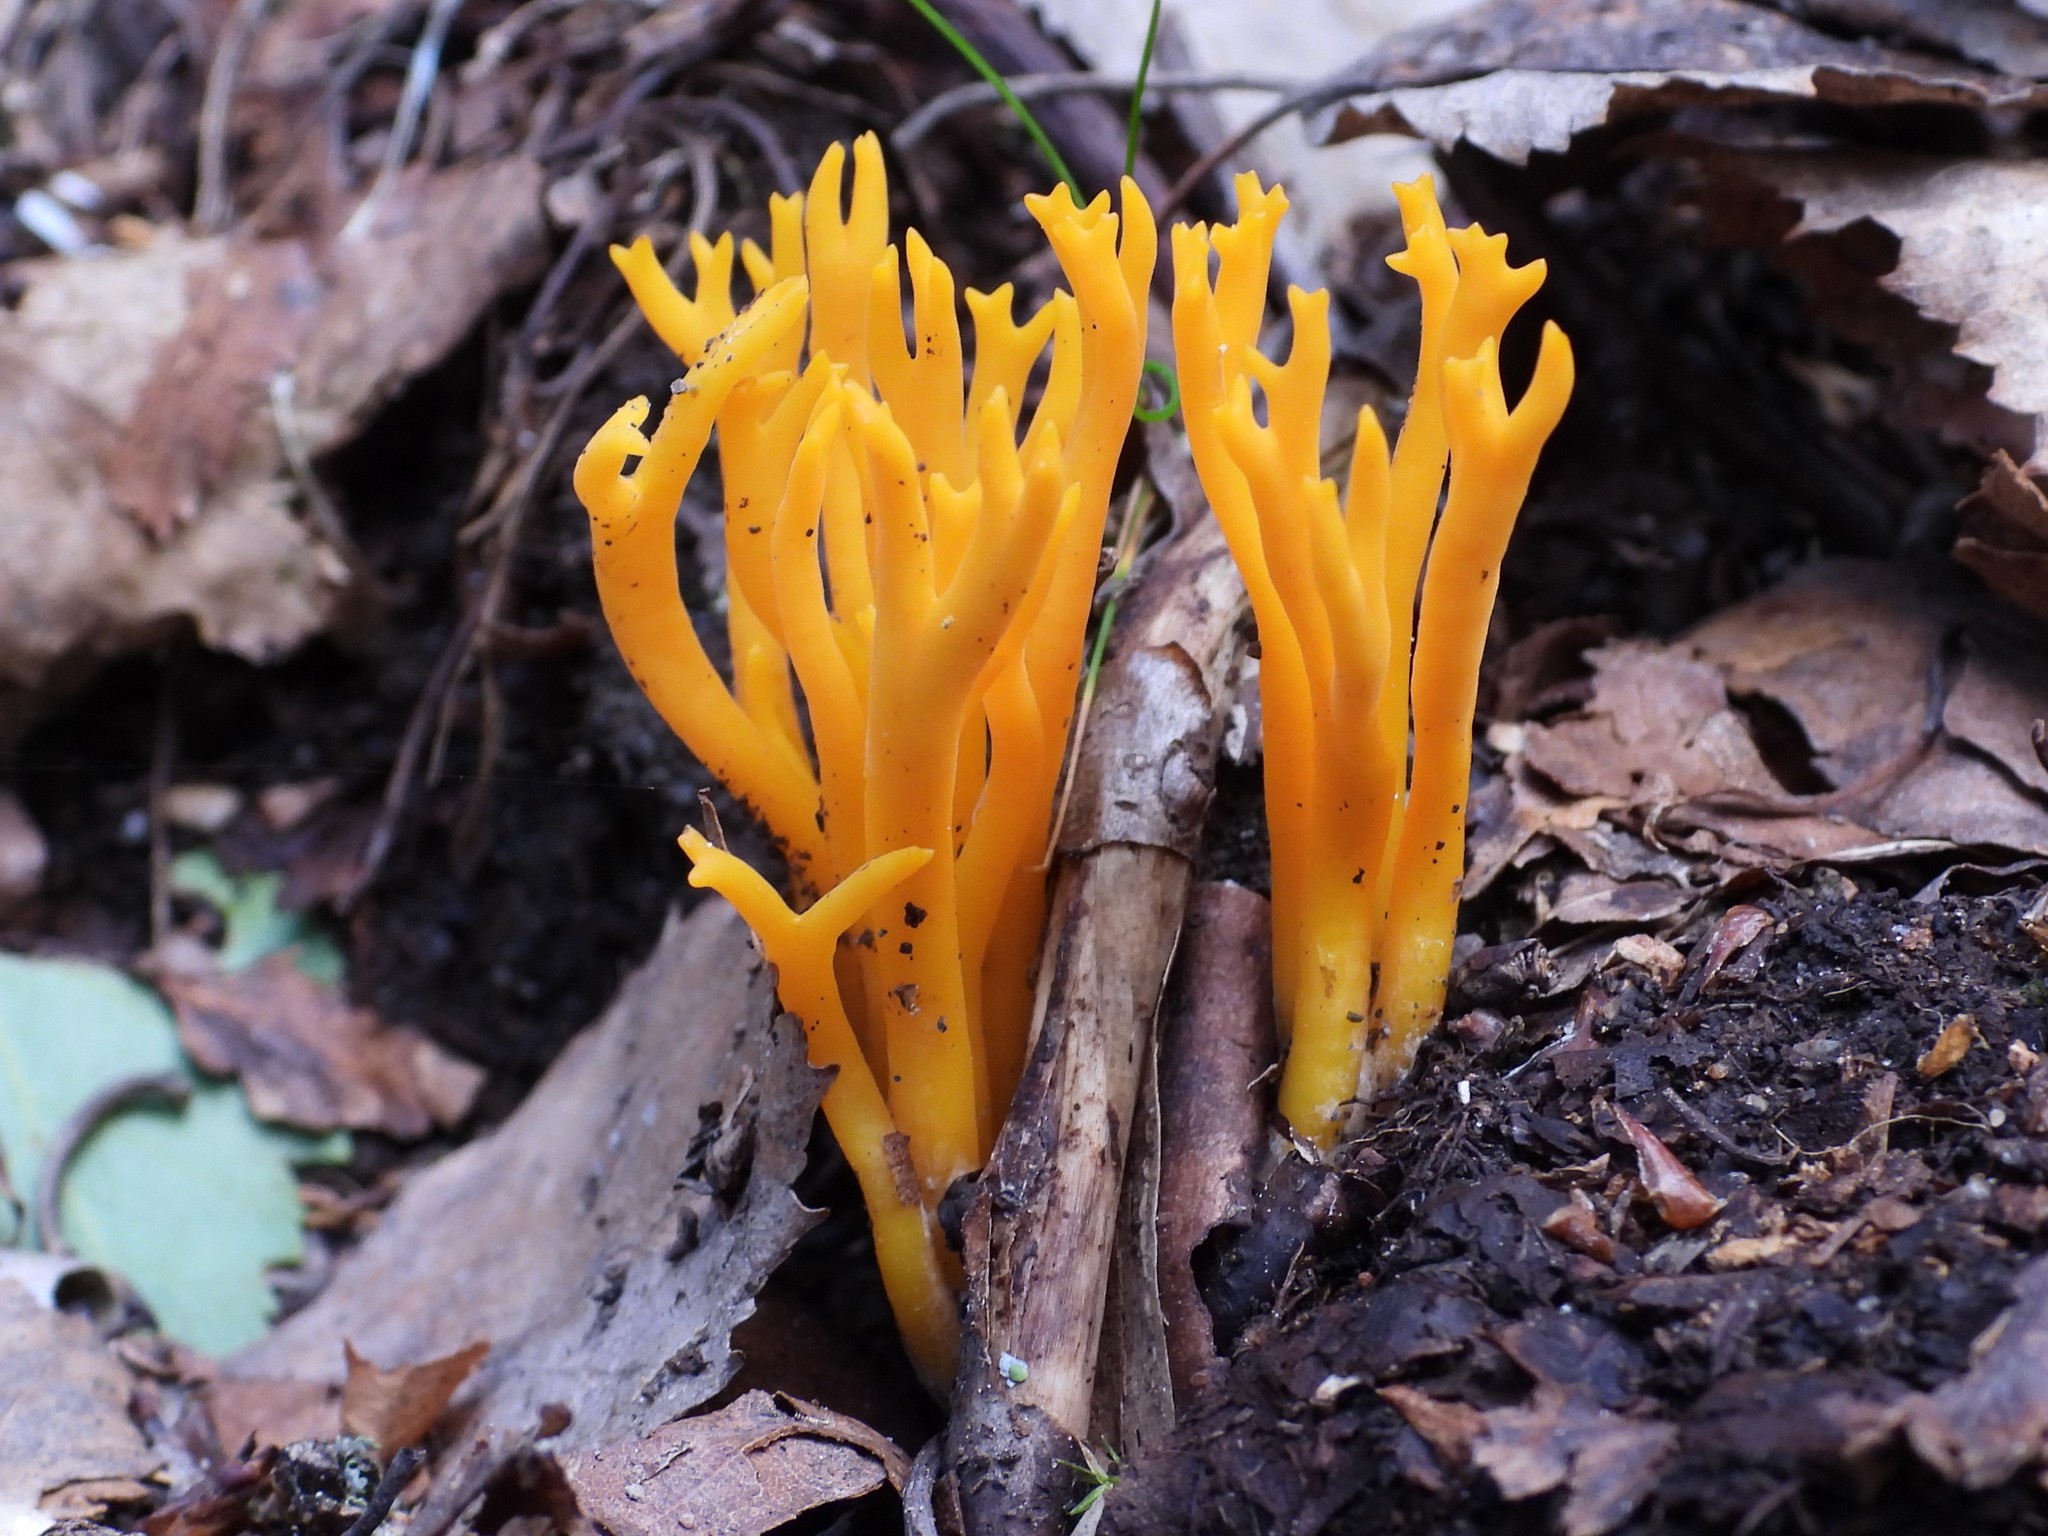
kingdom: Fungi
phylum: Basidiomycota
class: Dacrymycetes
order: Dacrymycetales
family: Dacrymycetaceae
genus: Calocera
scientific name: Calocera viscosa
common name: Yellow stagshorn
